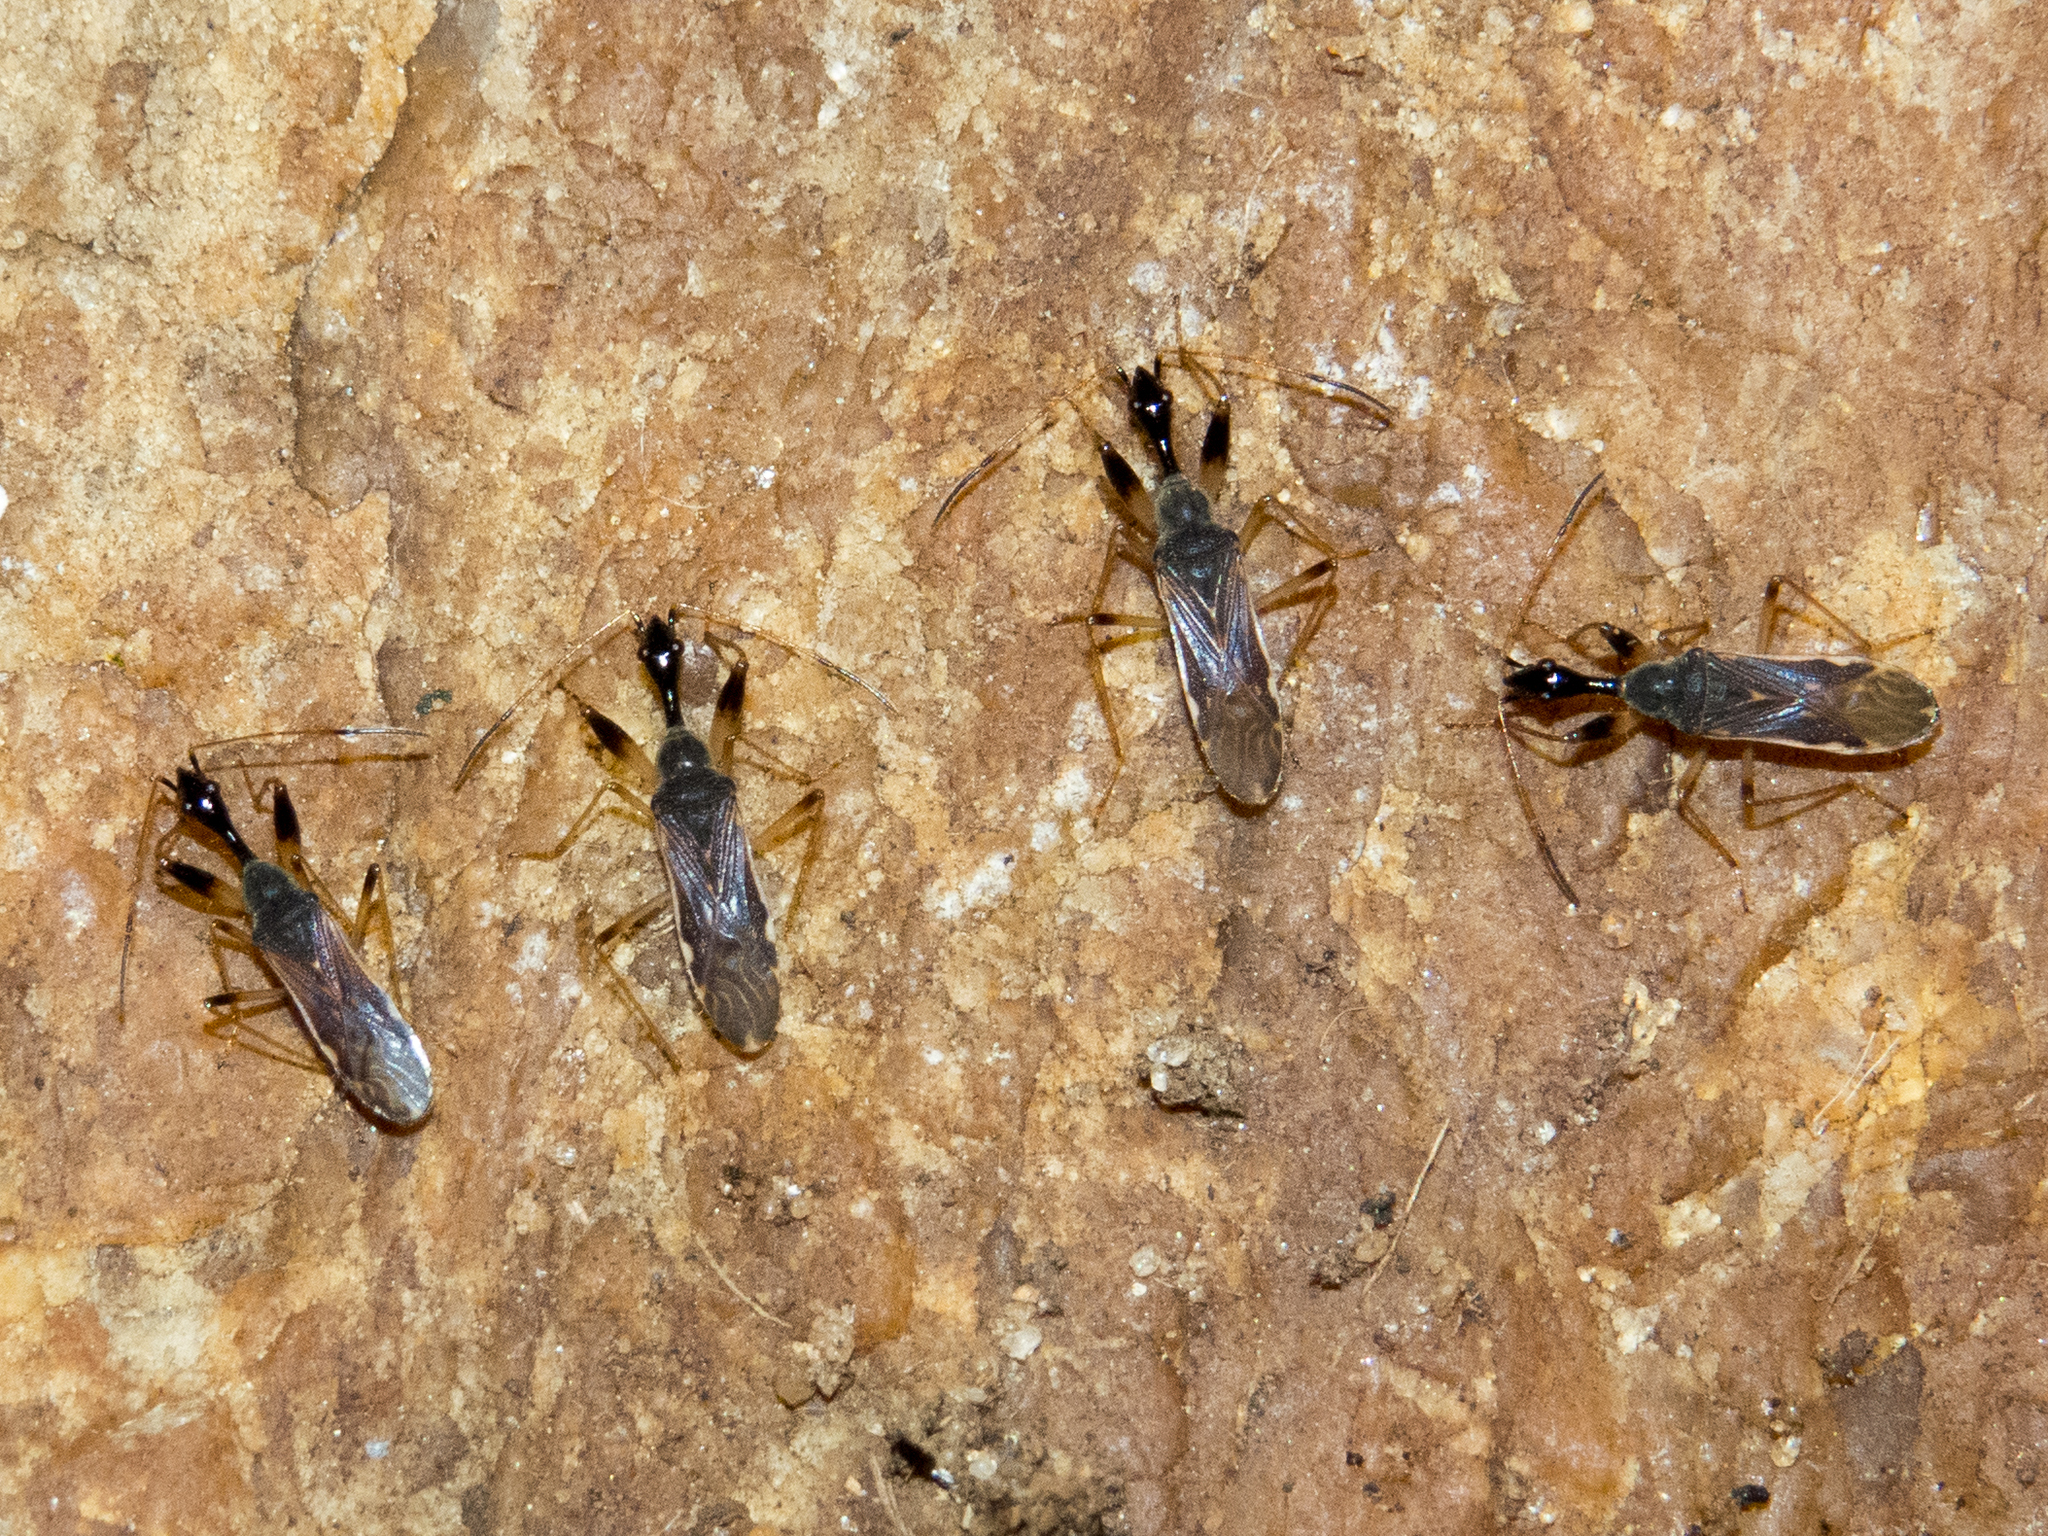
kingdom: Animalia
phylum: Arthropoda
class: Insecta
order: Hemiptera
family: Rhyparochromidae
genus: Myodocha
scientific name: Myodocha serripes
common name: Long-necked seed bug
